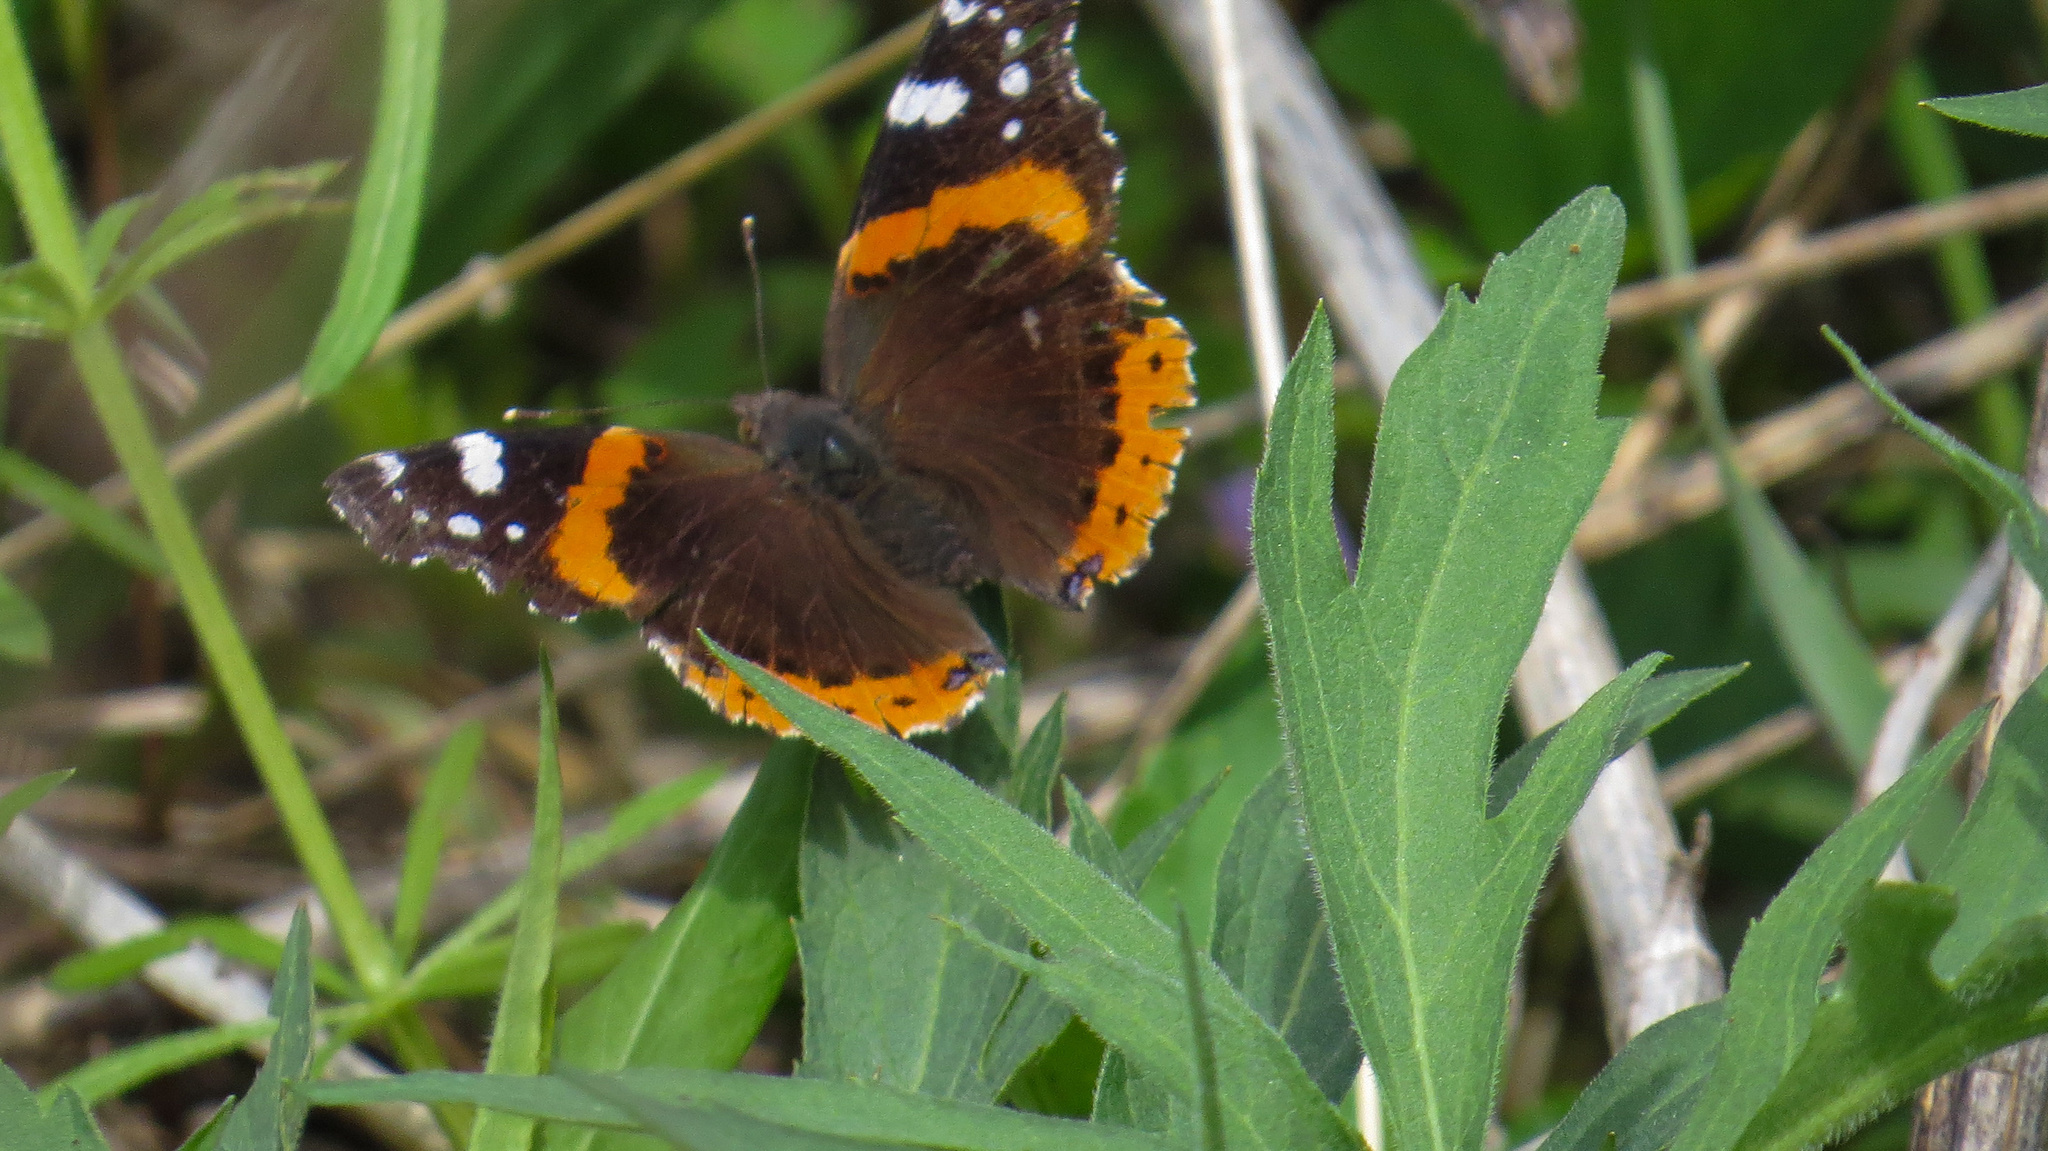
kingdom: Animalia
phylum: Arthropoda
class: Insecta
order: Lepidoptera
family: Nymphalidae
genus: Vanessa
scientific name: Vanessa atalanta
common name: Red admiral
